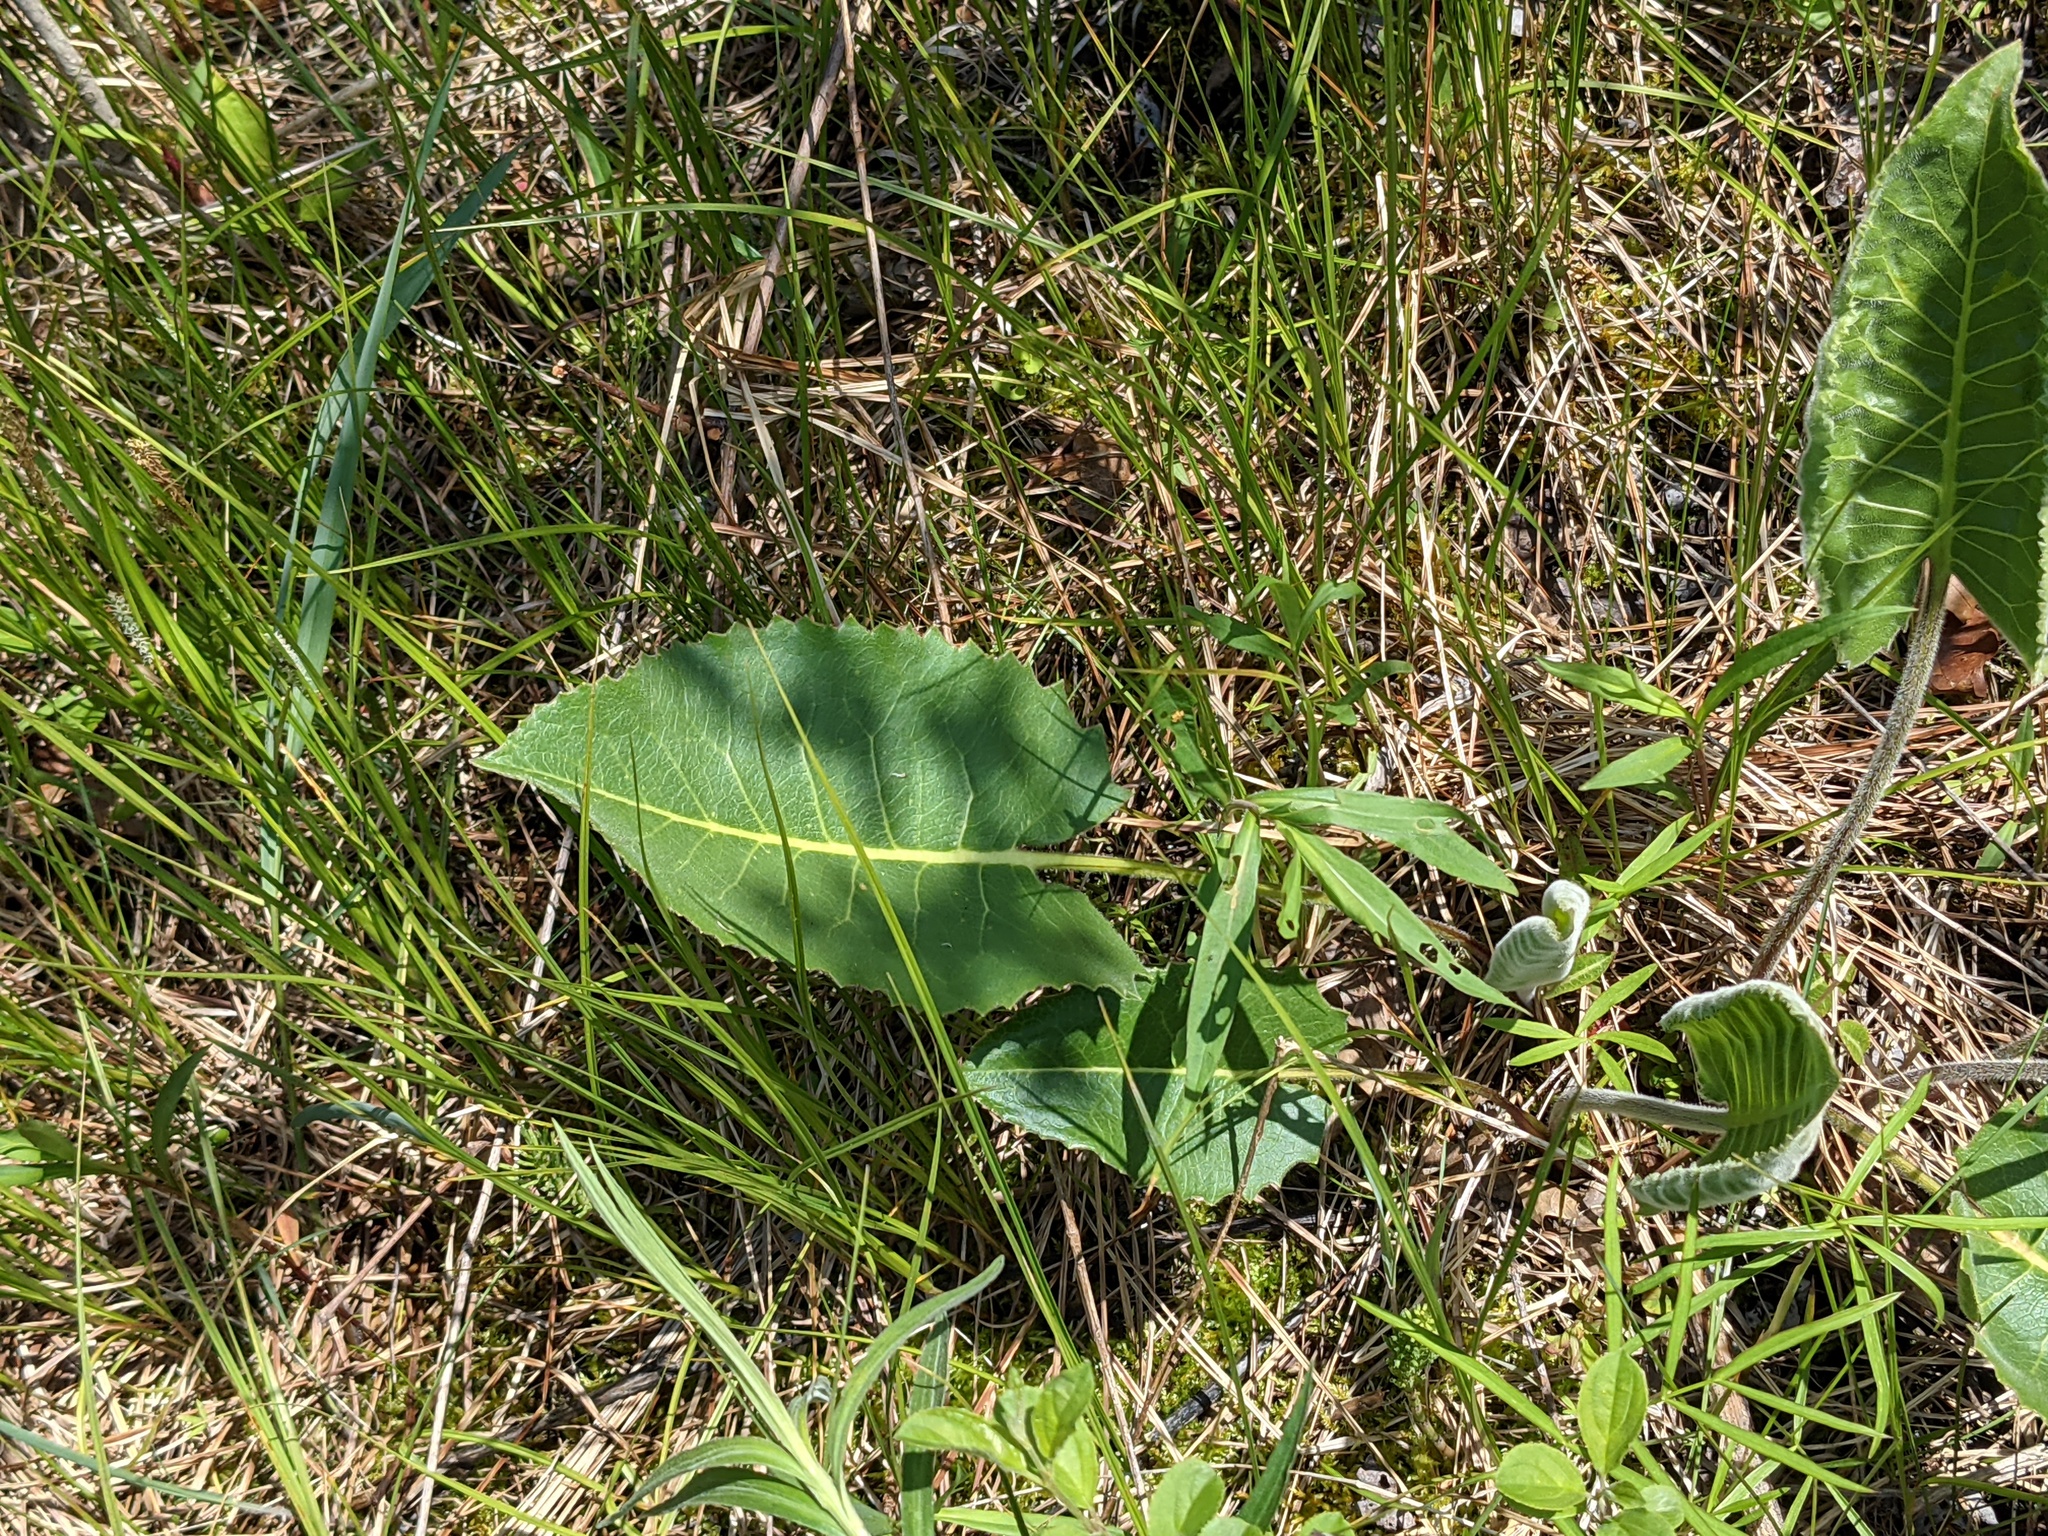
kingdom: Plantae
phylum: Tracheophyta
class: Magnoliopsida
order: Asterales
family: Asteraceae
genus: Silphium
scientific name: Silphium terebinthinaceum
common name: Basal-leaf rosinweed
